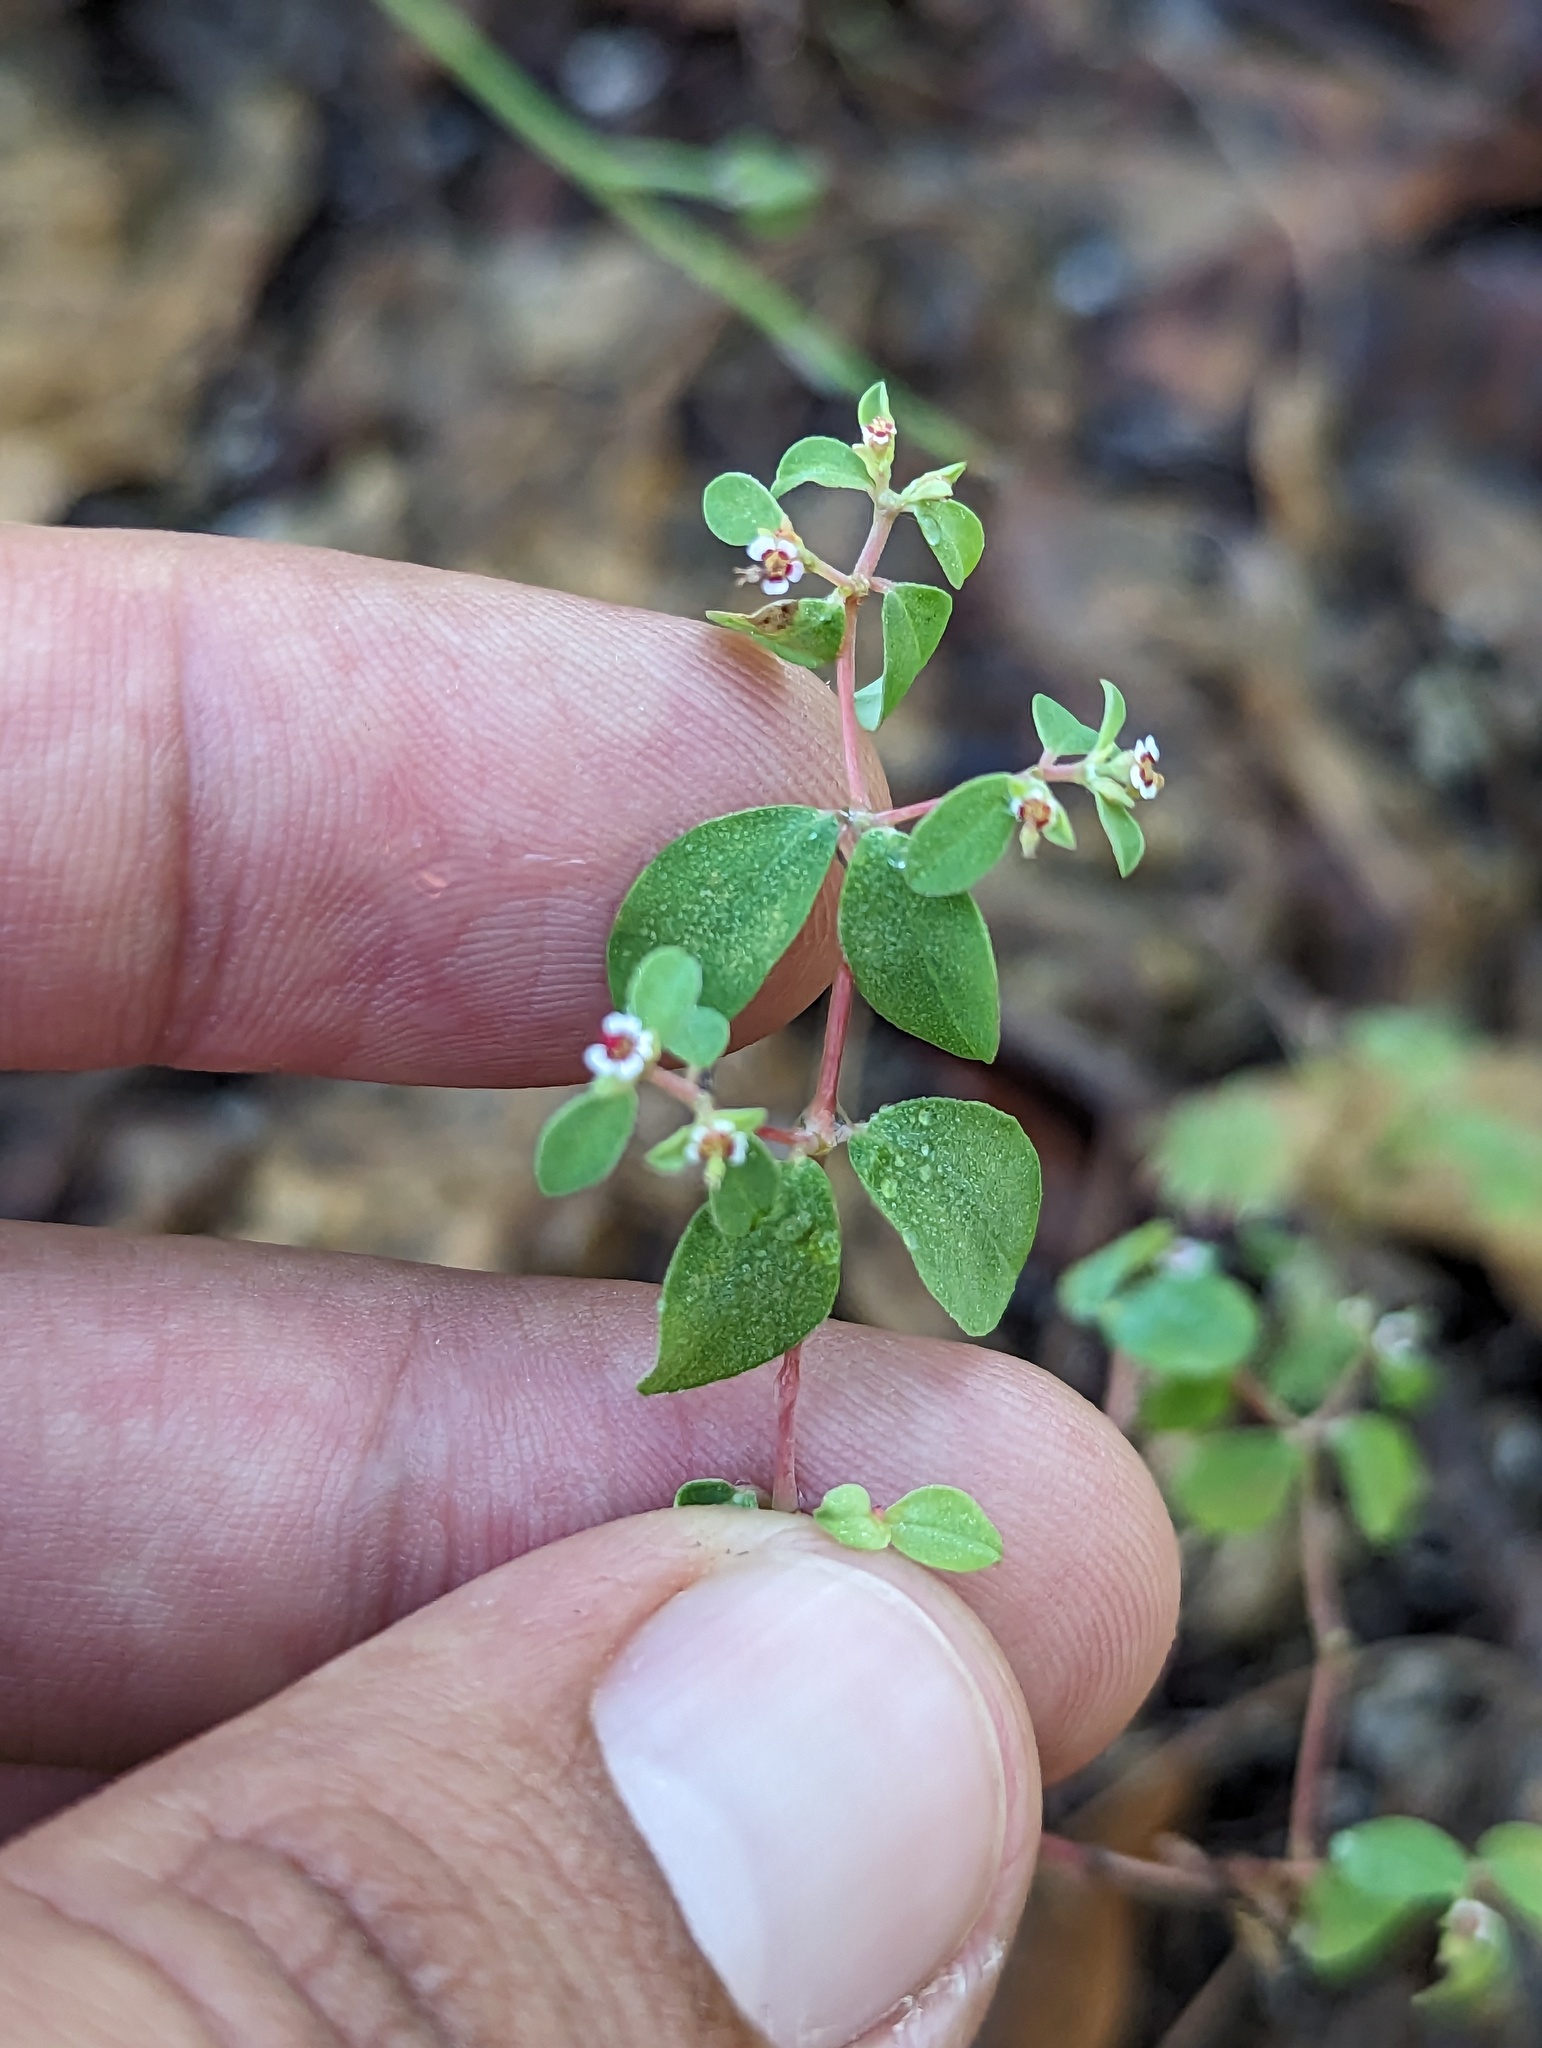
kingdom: Plantae
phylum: Tracheophyta
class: Magnoliopsida
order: Malpighiales
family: Euphorbiaceae
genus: Euphorbia
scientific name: Euphorbia polycarpa
